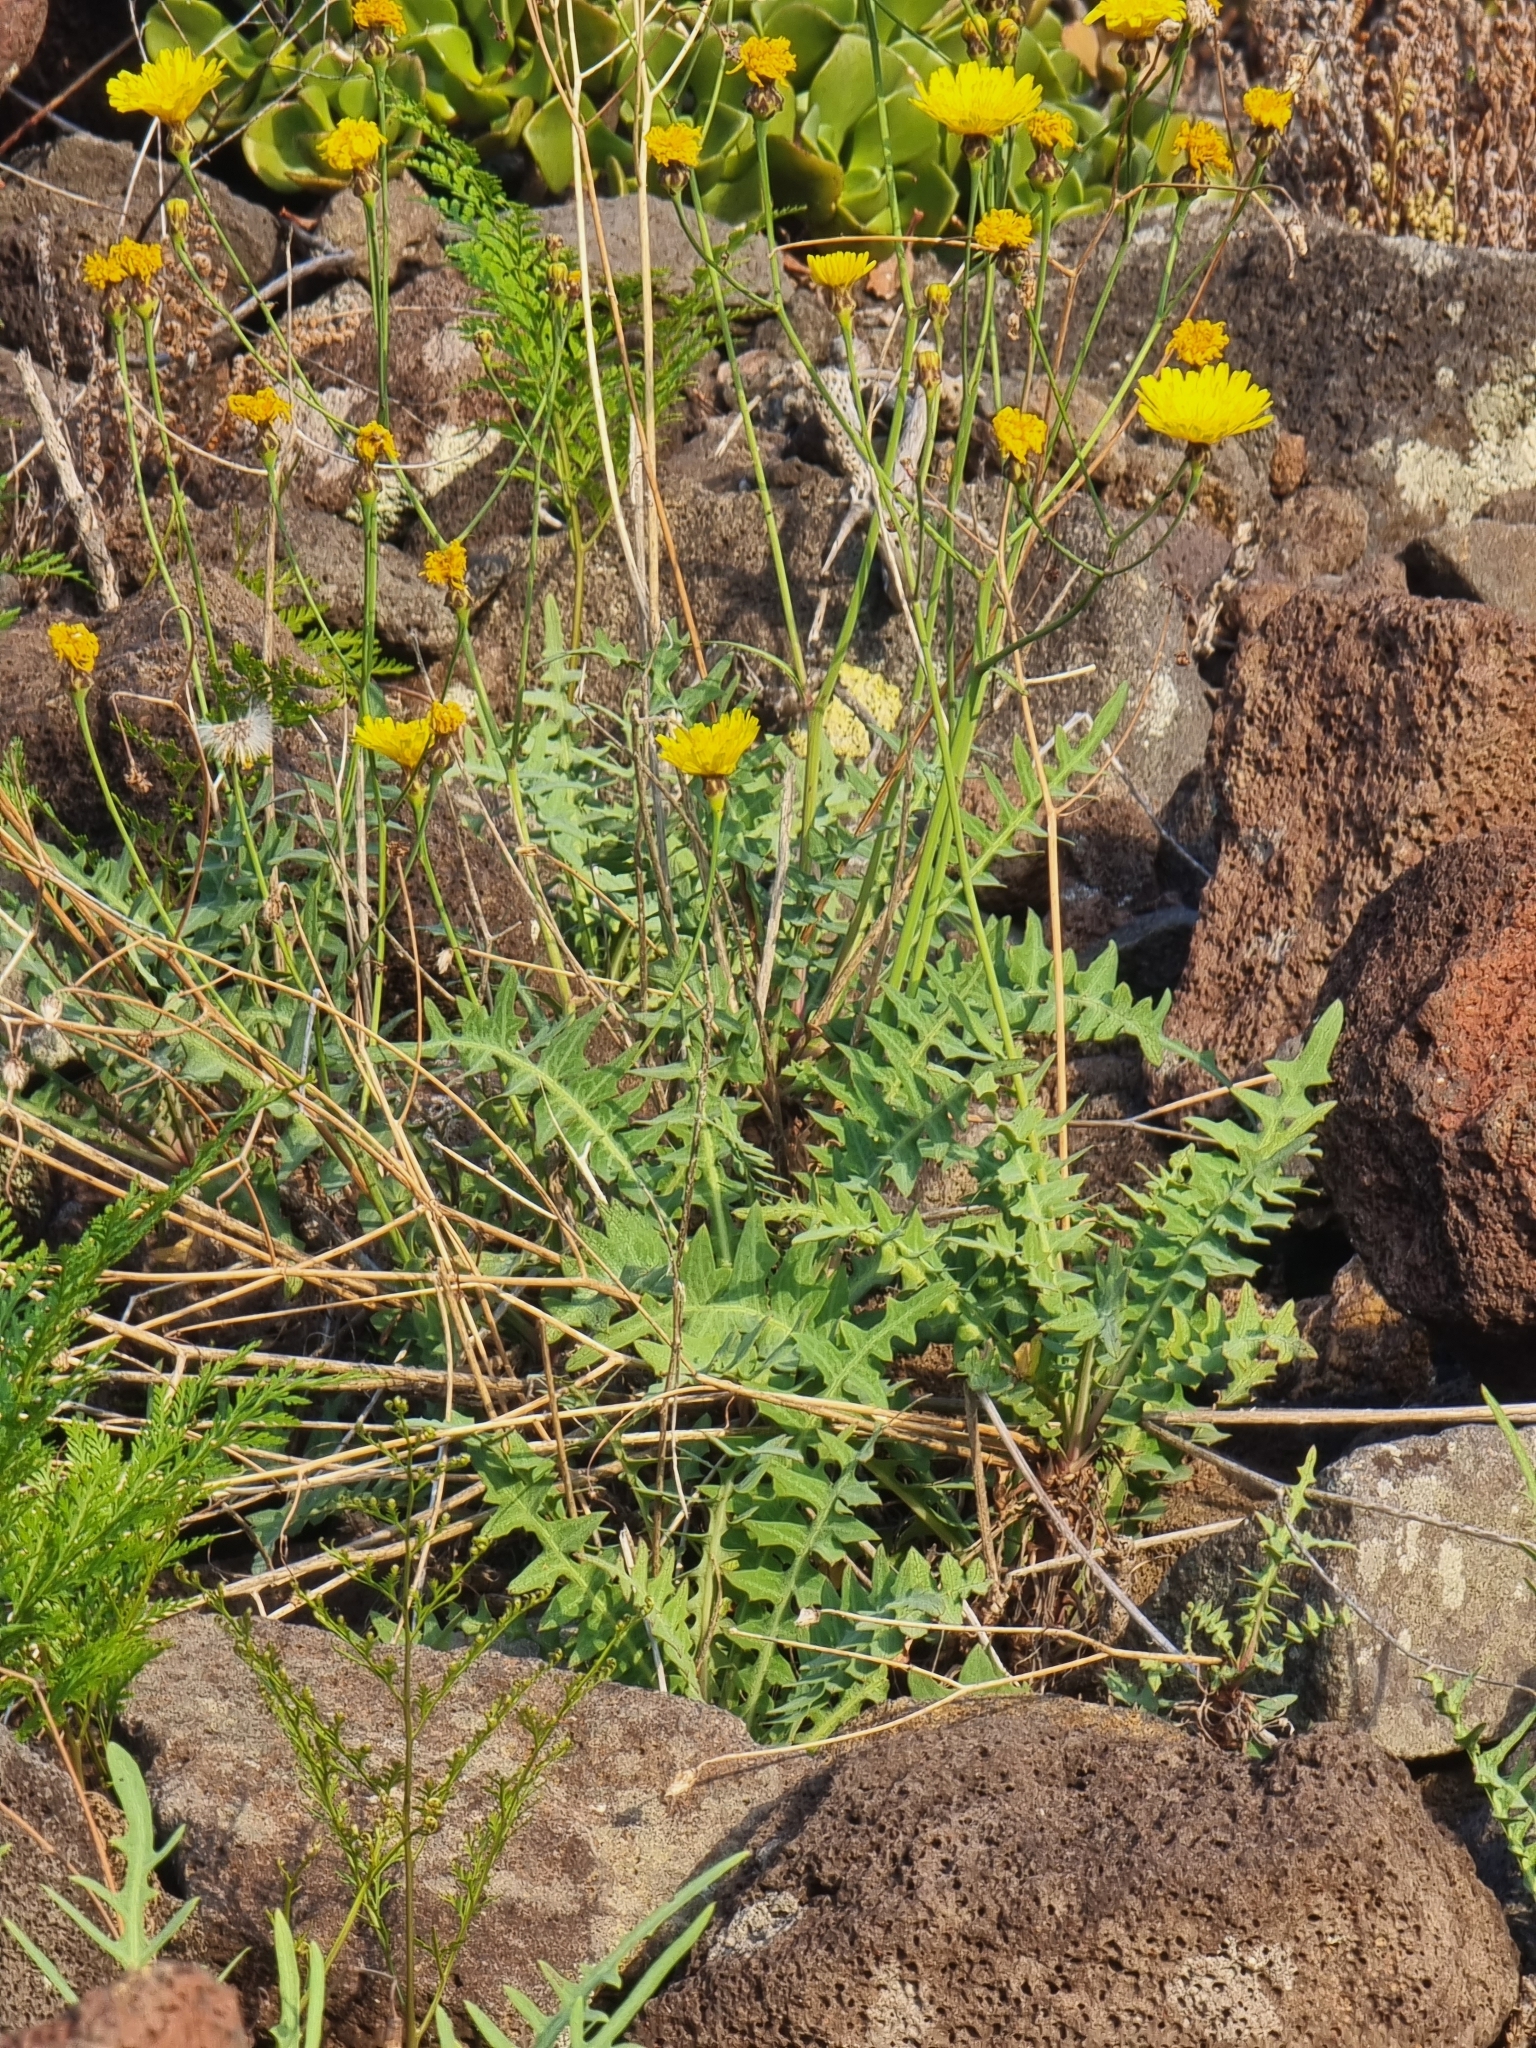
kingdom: Plantae
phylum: Tracheophyta
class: Magnoliopsida
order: Asterales
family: Asteraceae
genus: Sonchus
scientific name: Sonchus ustulatus
